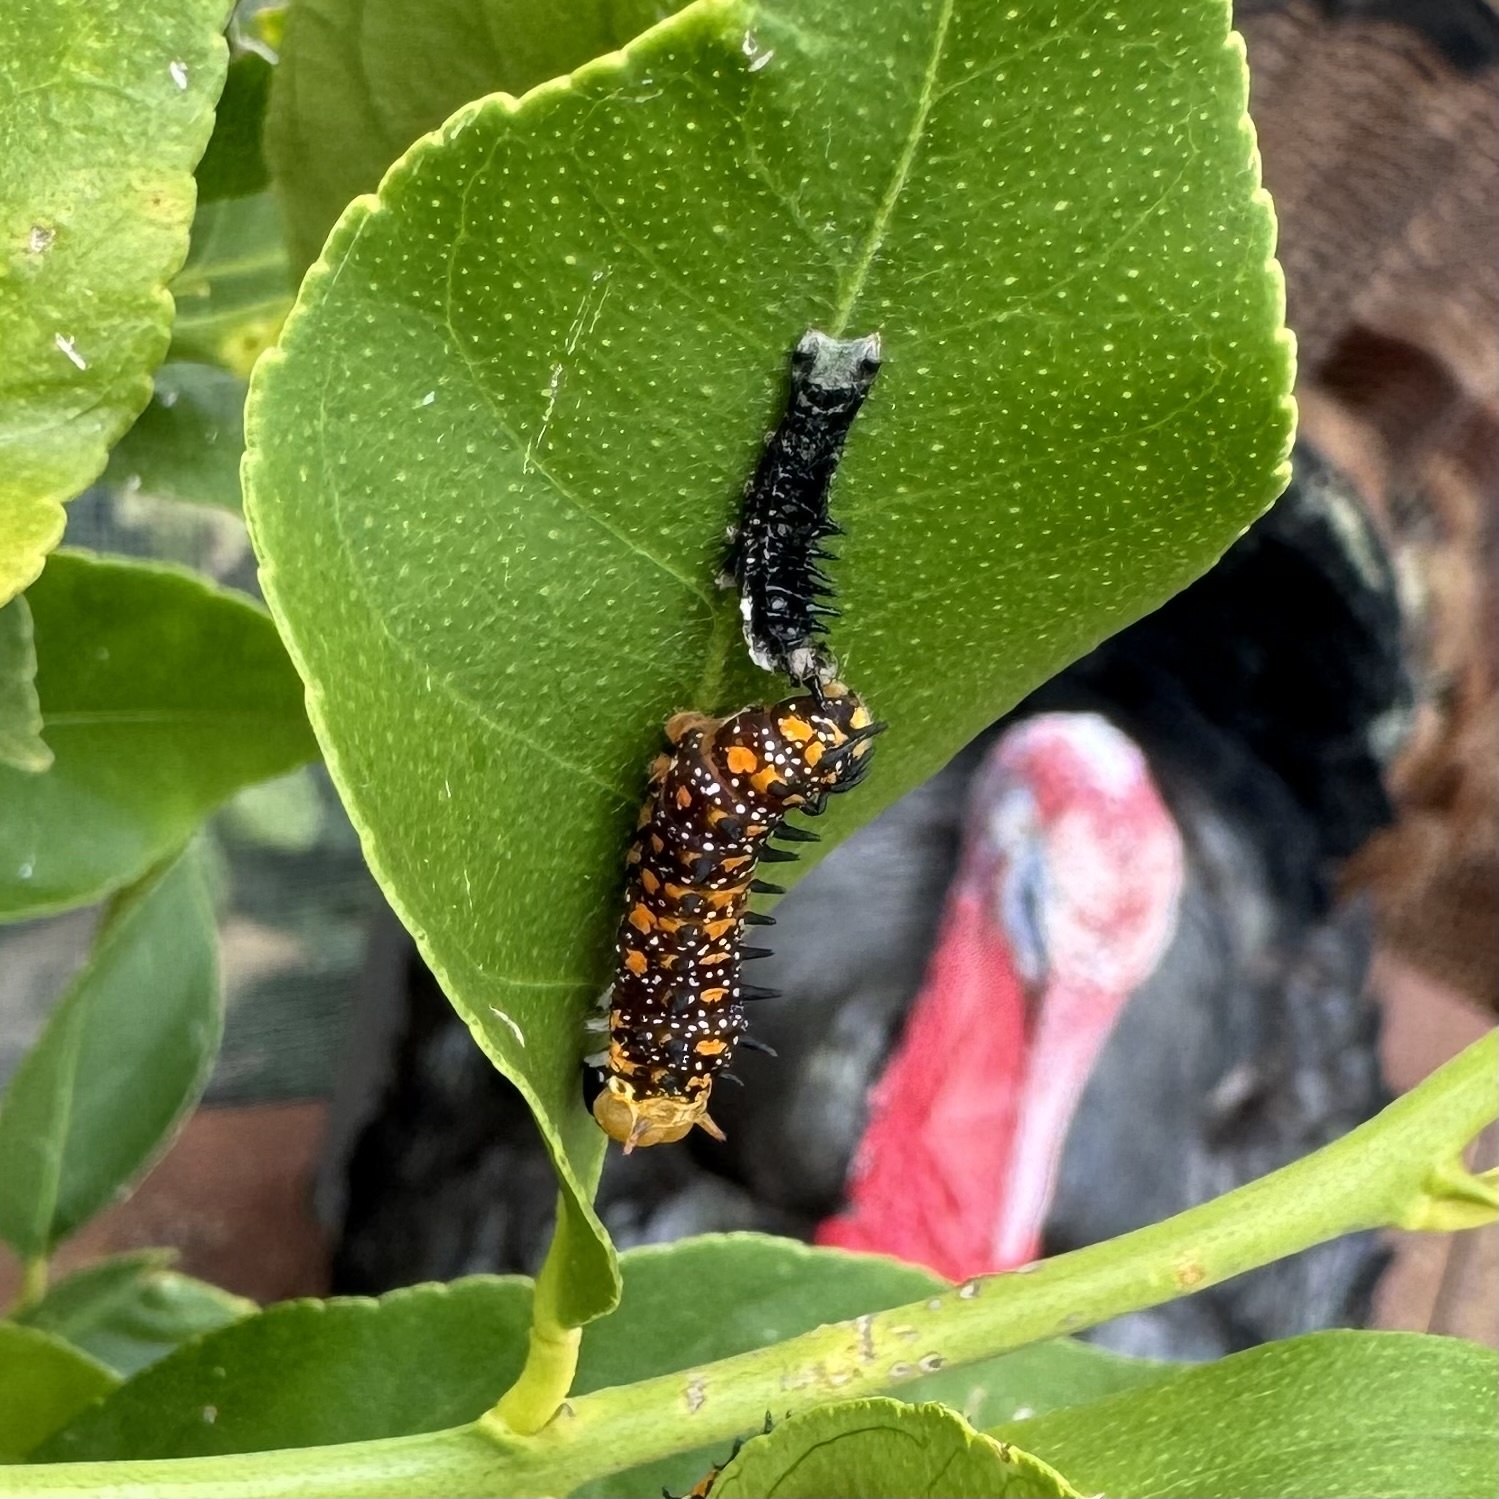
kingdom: Animalia
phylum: Arthropoda
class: Insecta
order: Lepidoptera
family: Papilionidae
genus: Papilio
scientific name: Papilio anactus
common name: Dingy swallowtail
